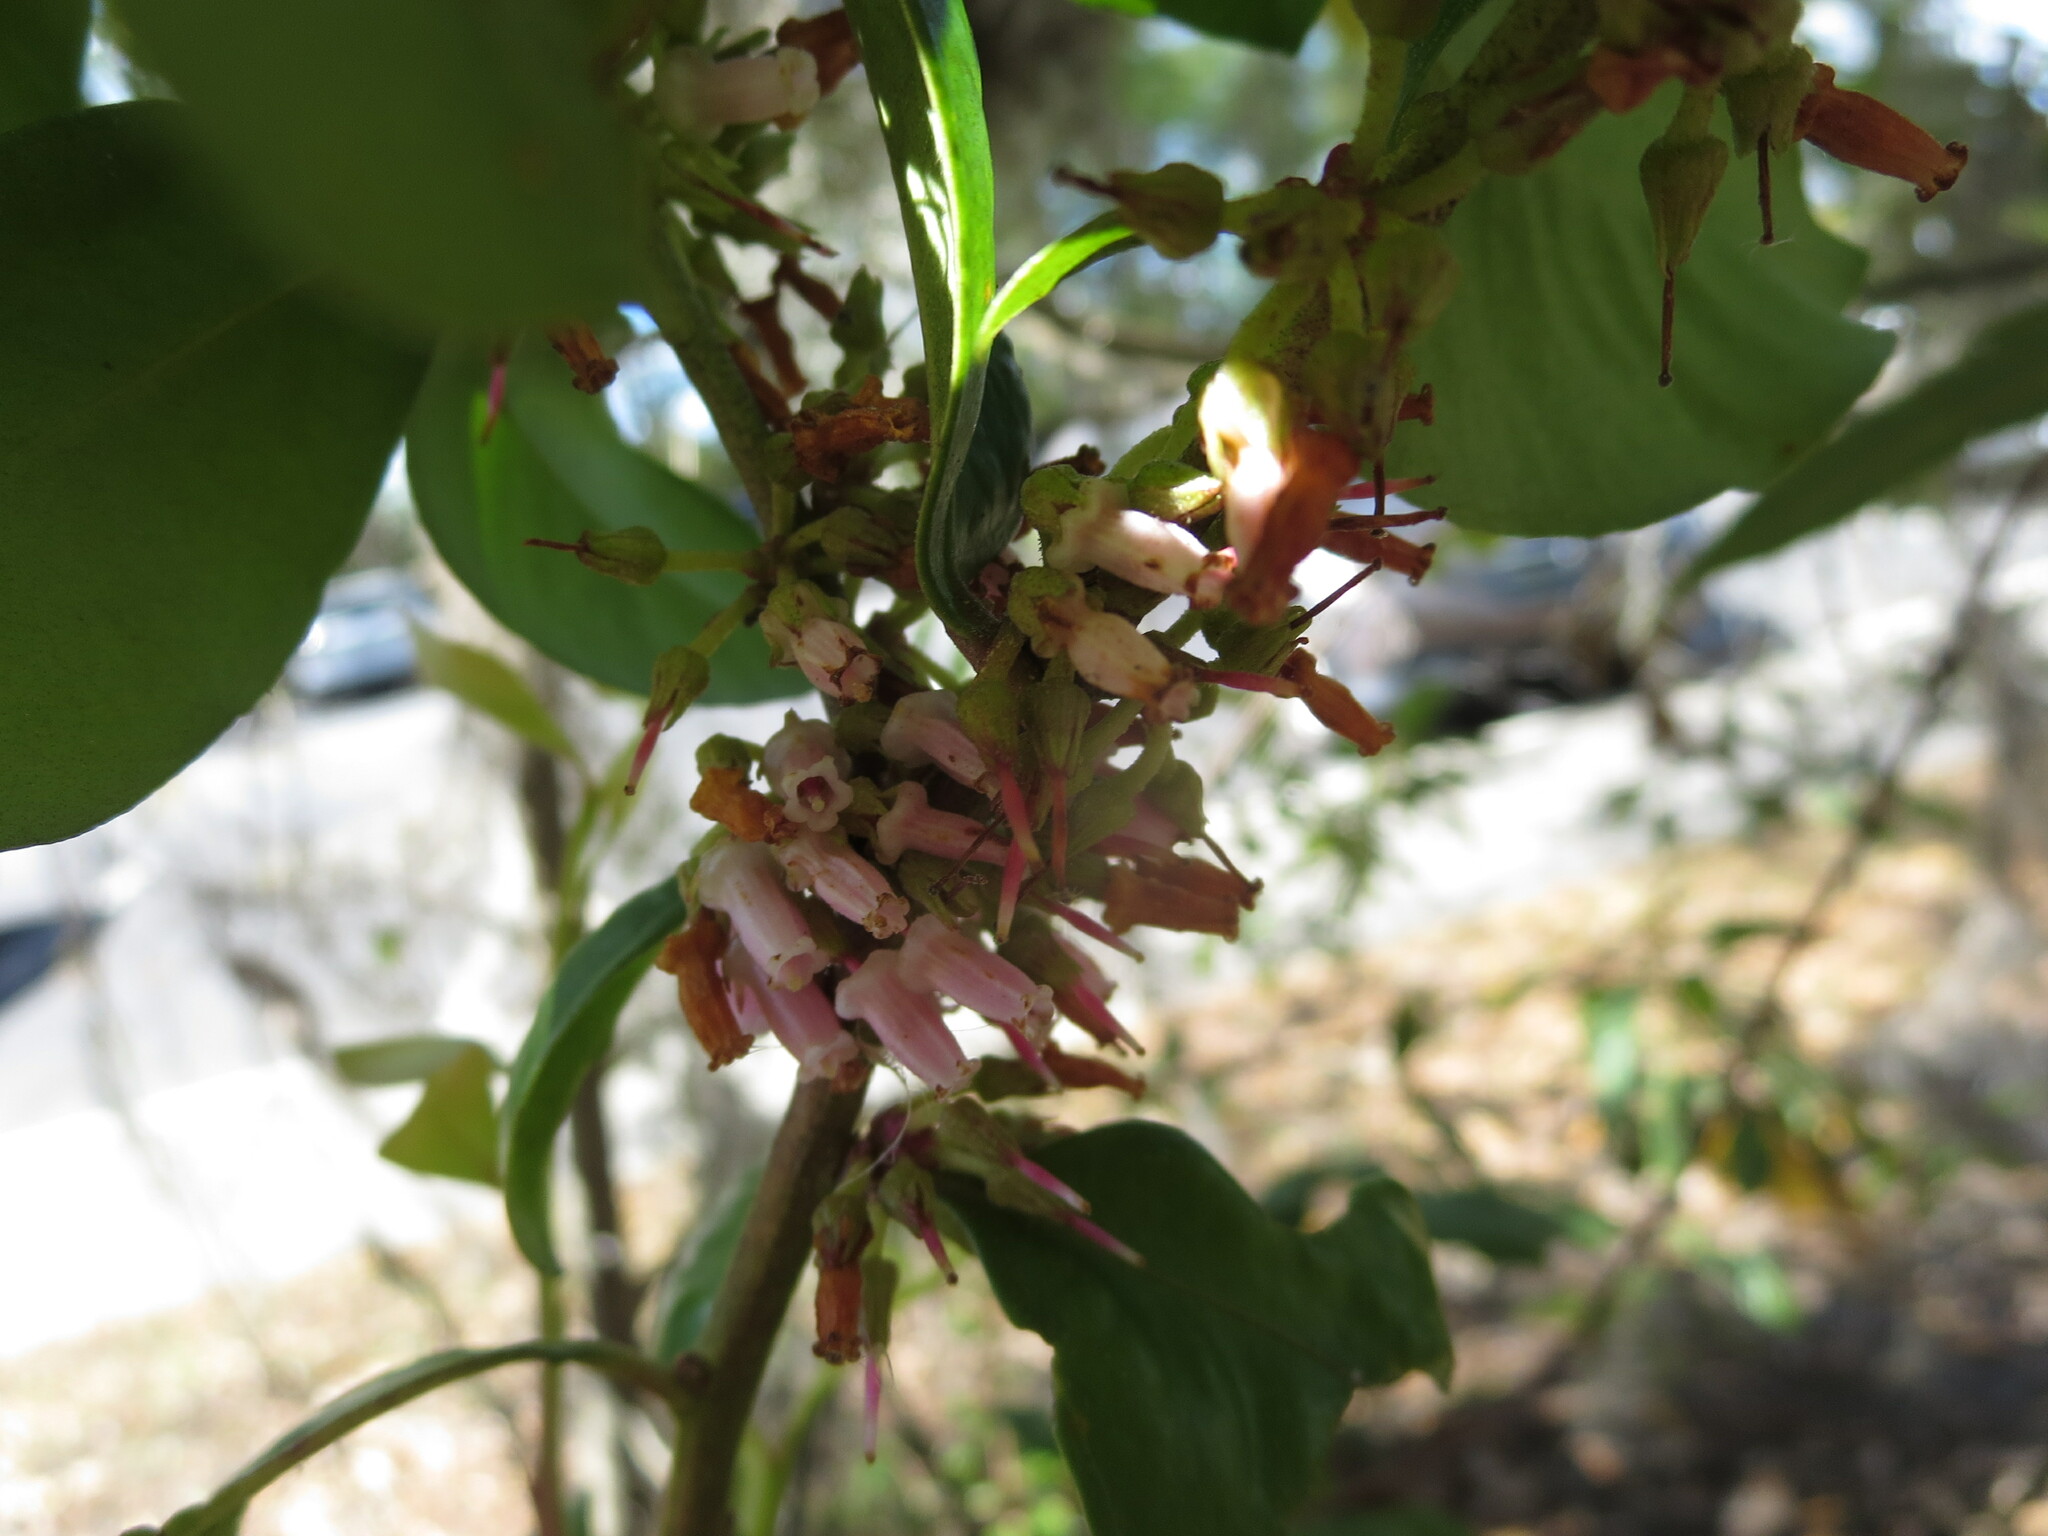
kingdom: Plantae
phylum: Tracheophyta
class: Magnoliopsida
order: Ericales
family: Ericaceae
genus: Lyonia
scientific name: Lyonia lucida
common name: Fetterbush
